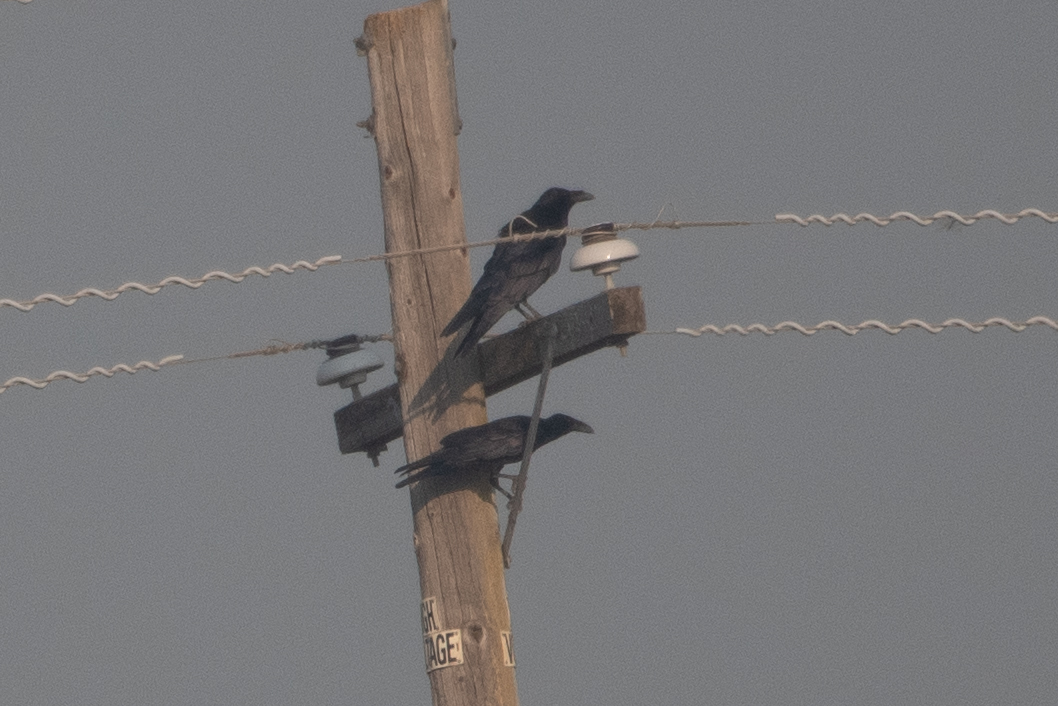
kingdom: Animalia
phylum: Chordata
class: Aves
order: Passeriformes
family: Corvidae
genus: Corvus
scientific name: Corvus corax
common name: Common raven
